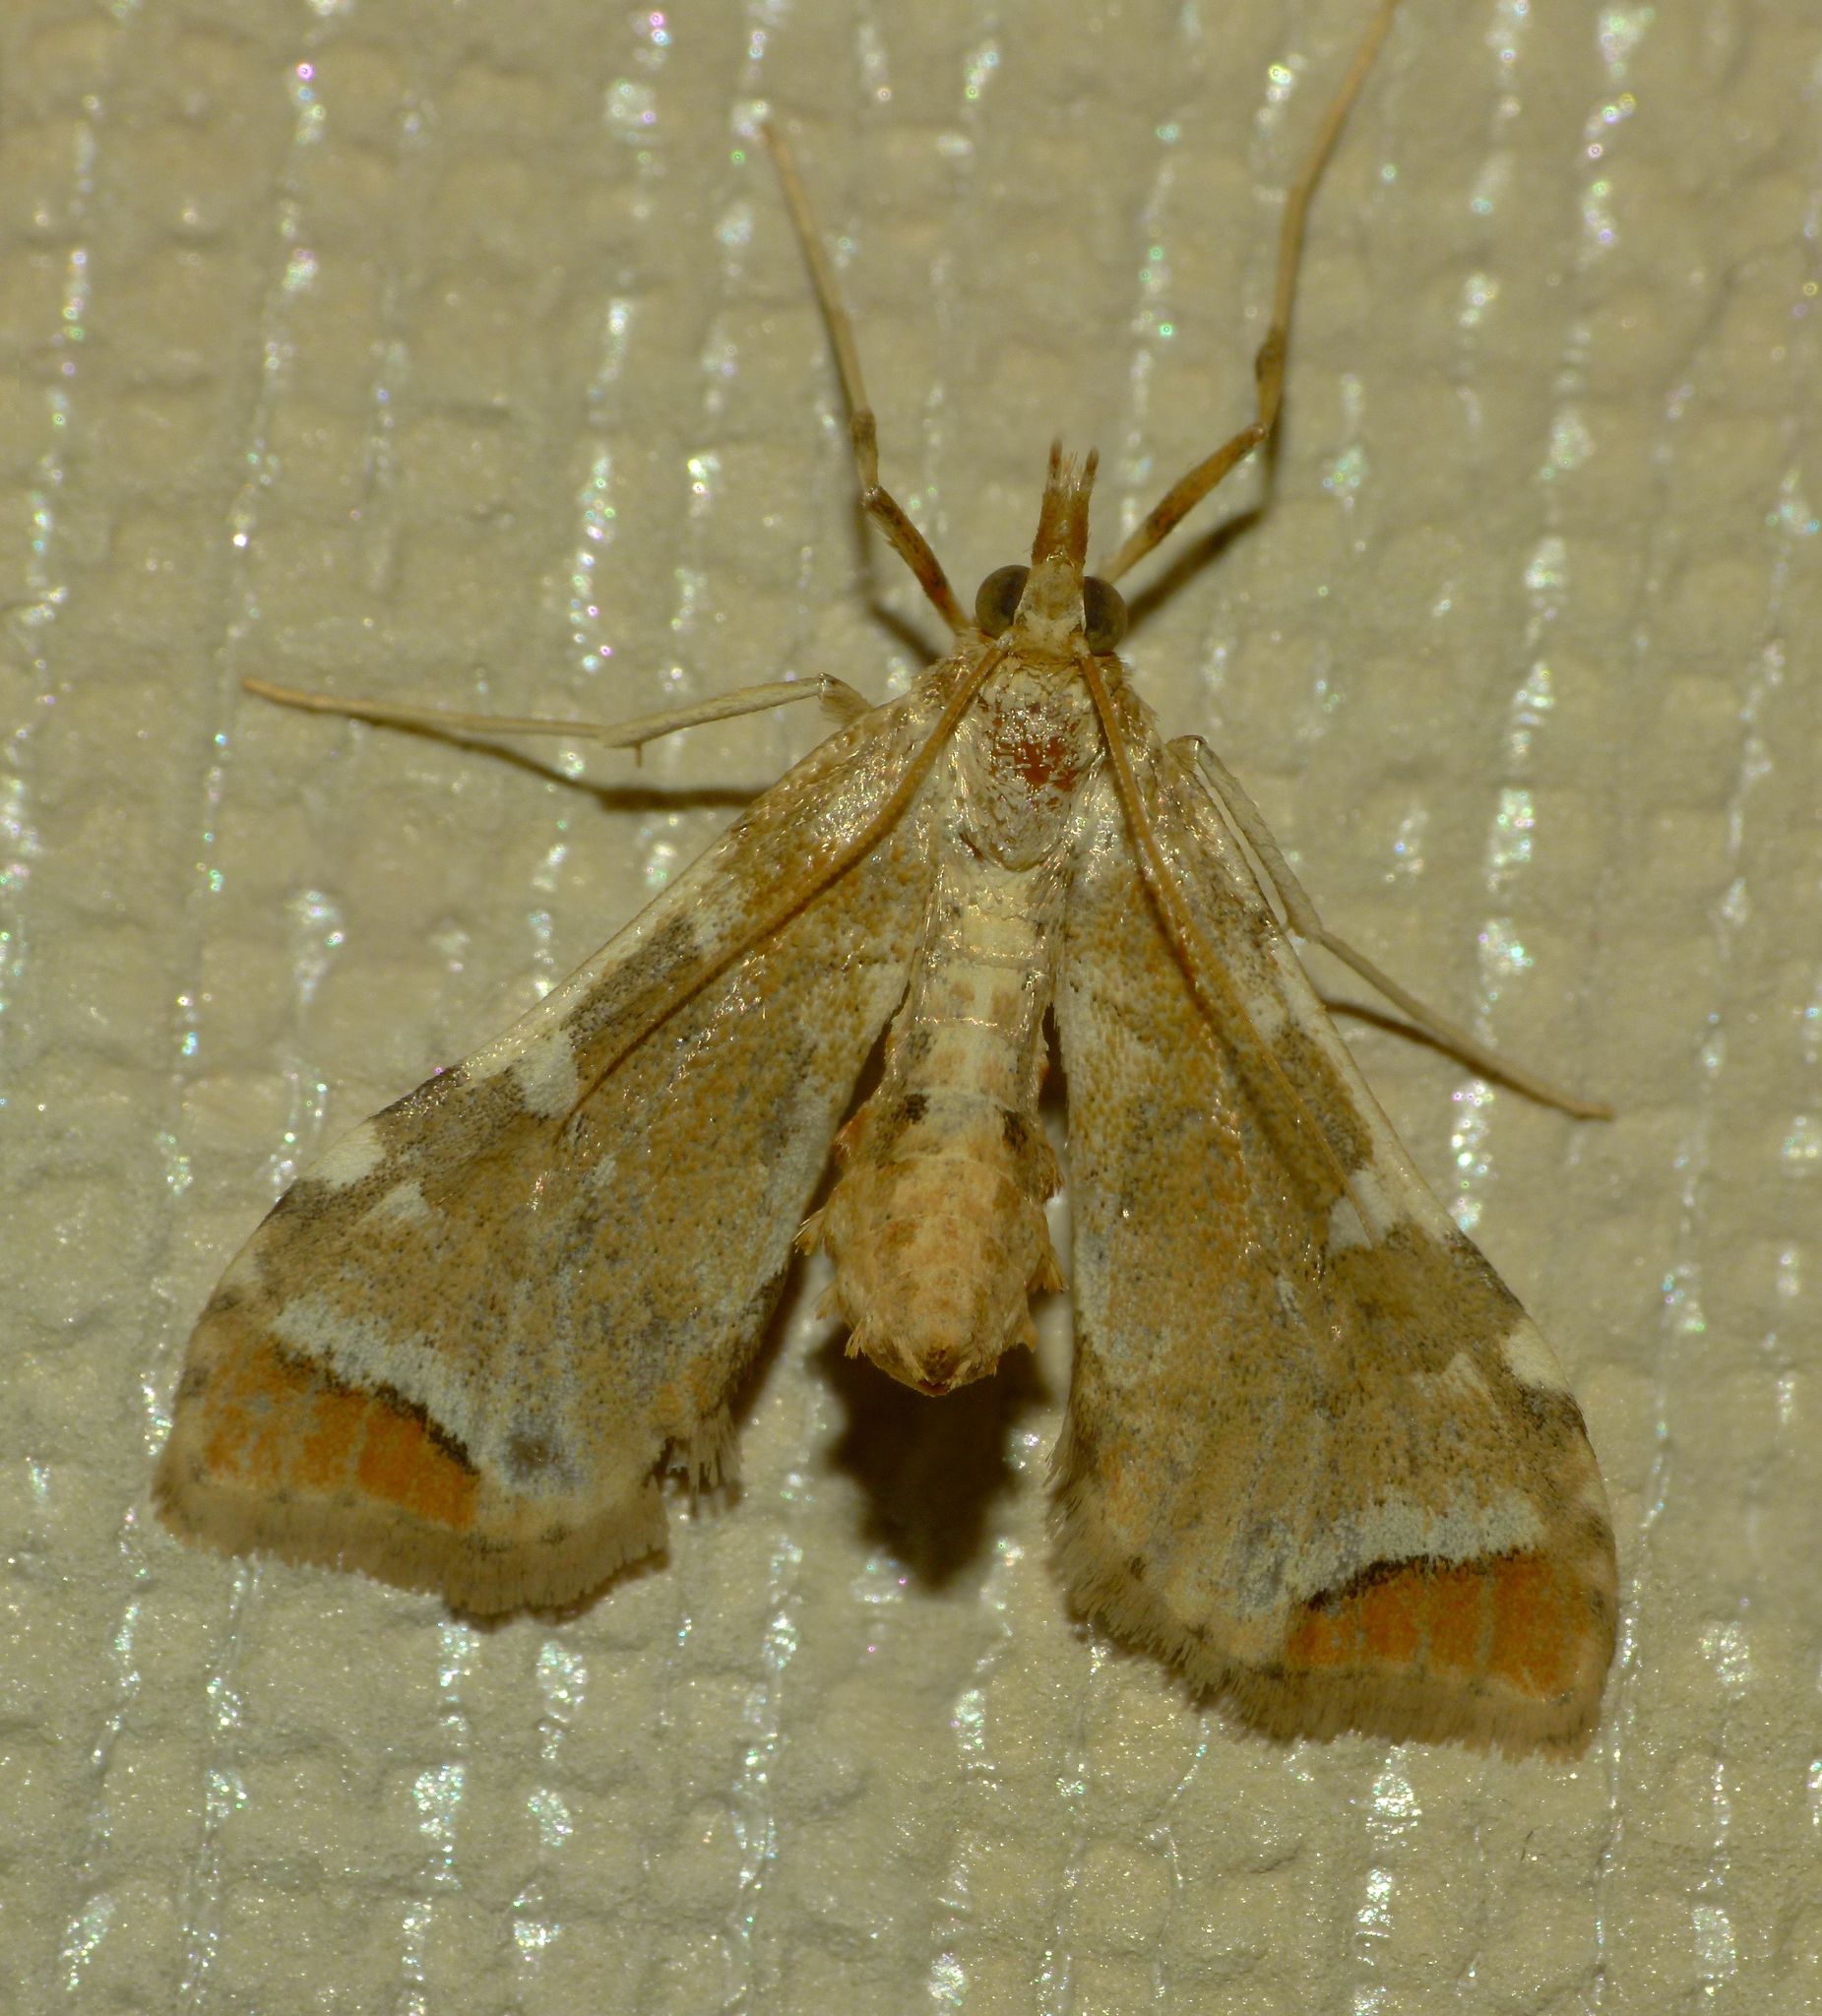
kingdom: Animalia
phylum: Arthropoda
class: Insecta
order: Lepidoptera
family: Crambidae
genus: Sceliodes
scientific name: Sceliodes cordalis
